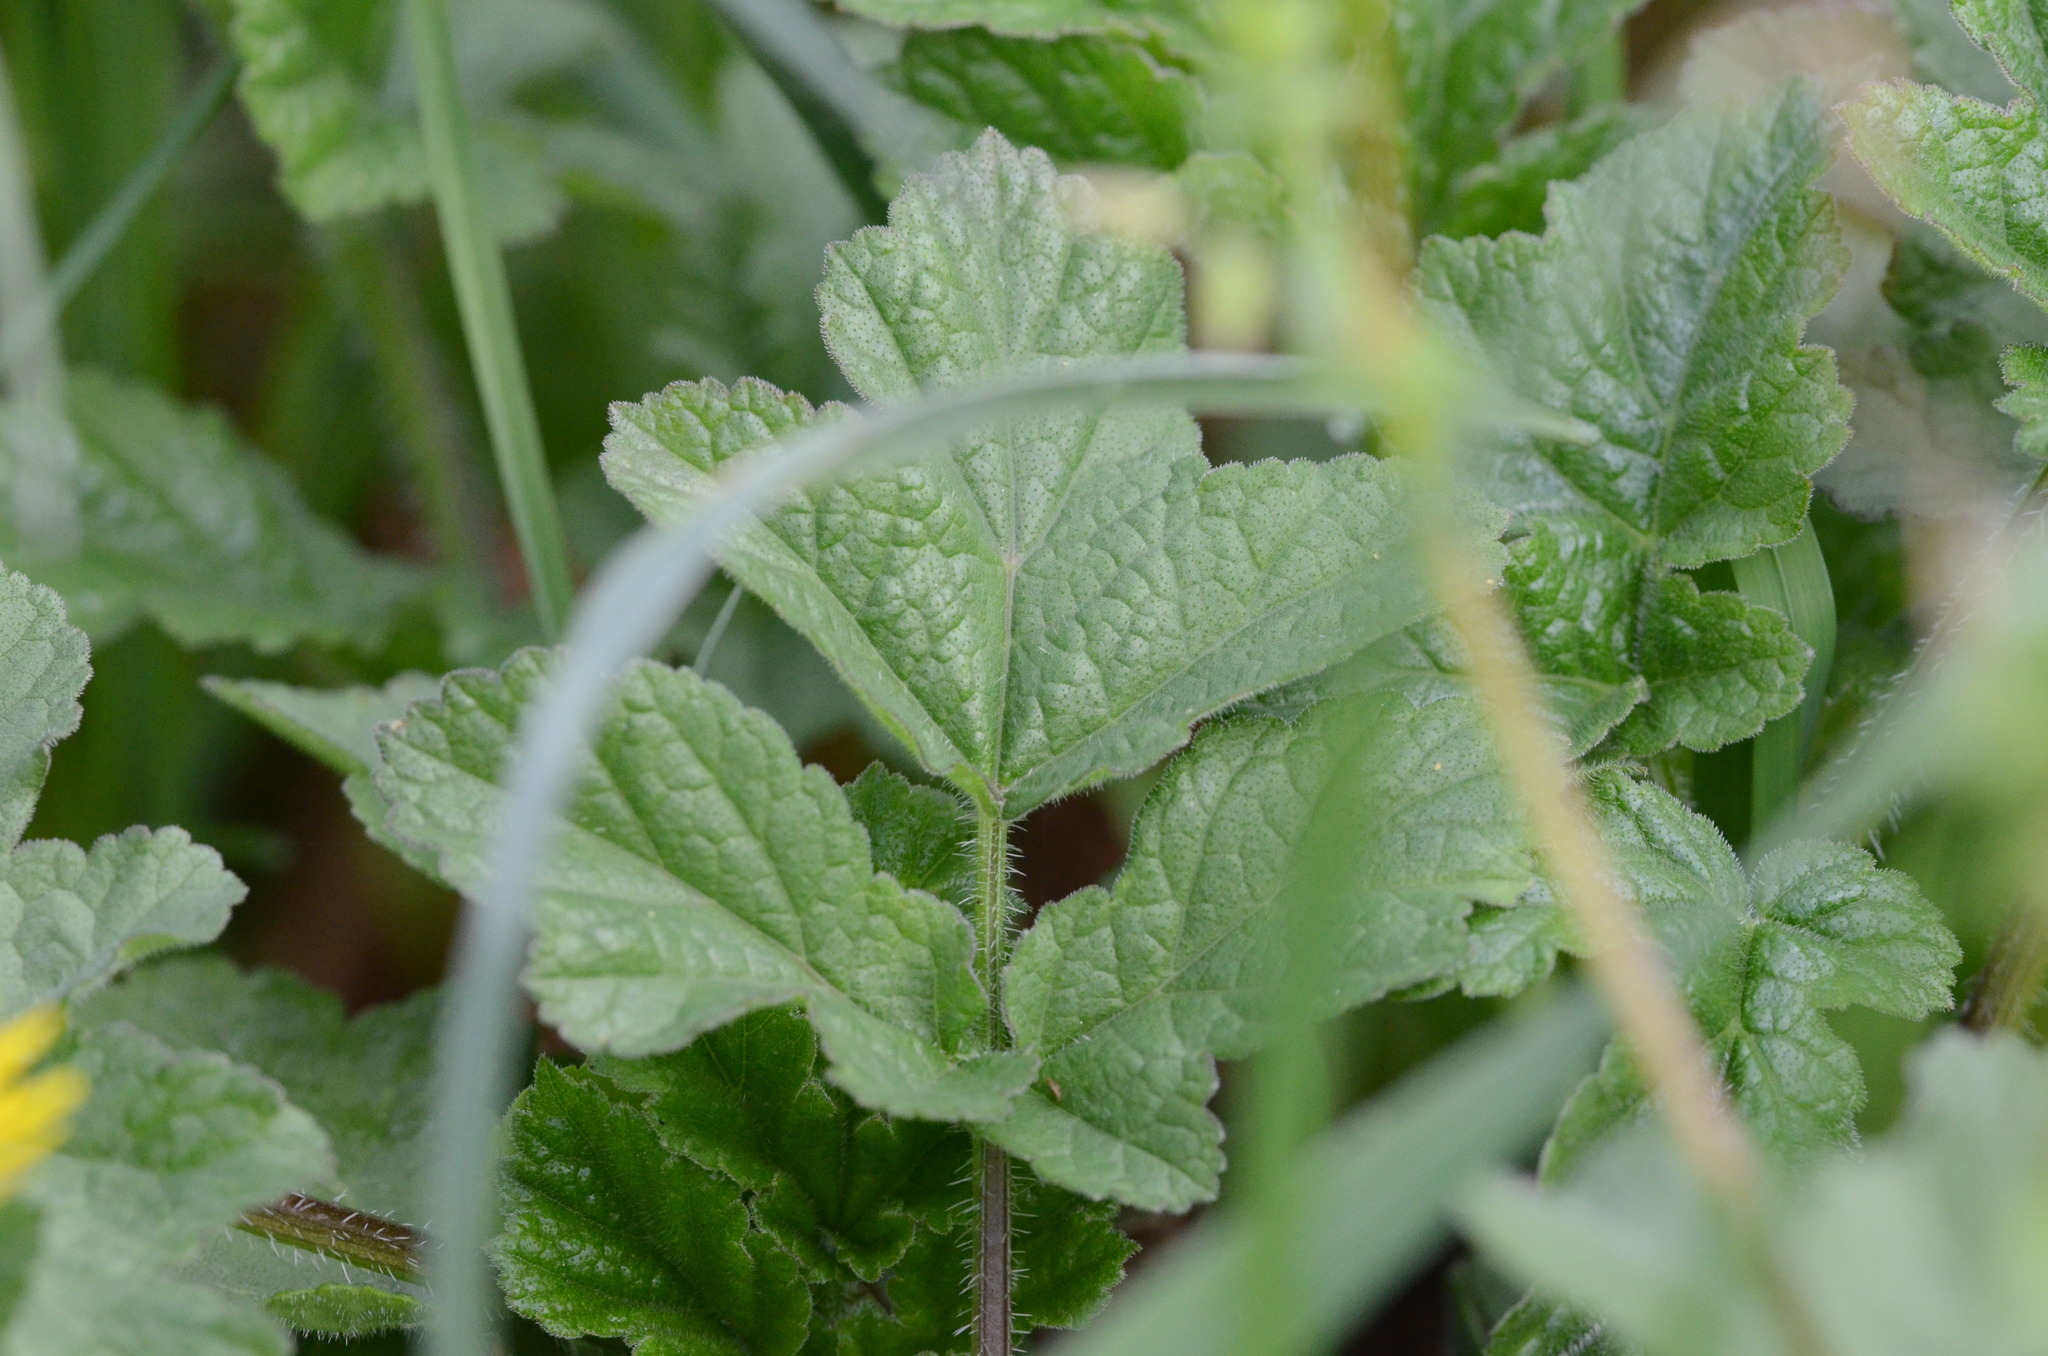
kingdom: Plantae
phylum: Tracheophyta
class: Magnoliopsida
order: Apiales
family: Apiaceae
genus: Heracleum
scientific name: Heracleum sphondylium
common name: Hogweed
